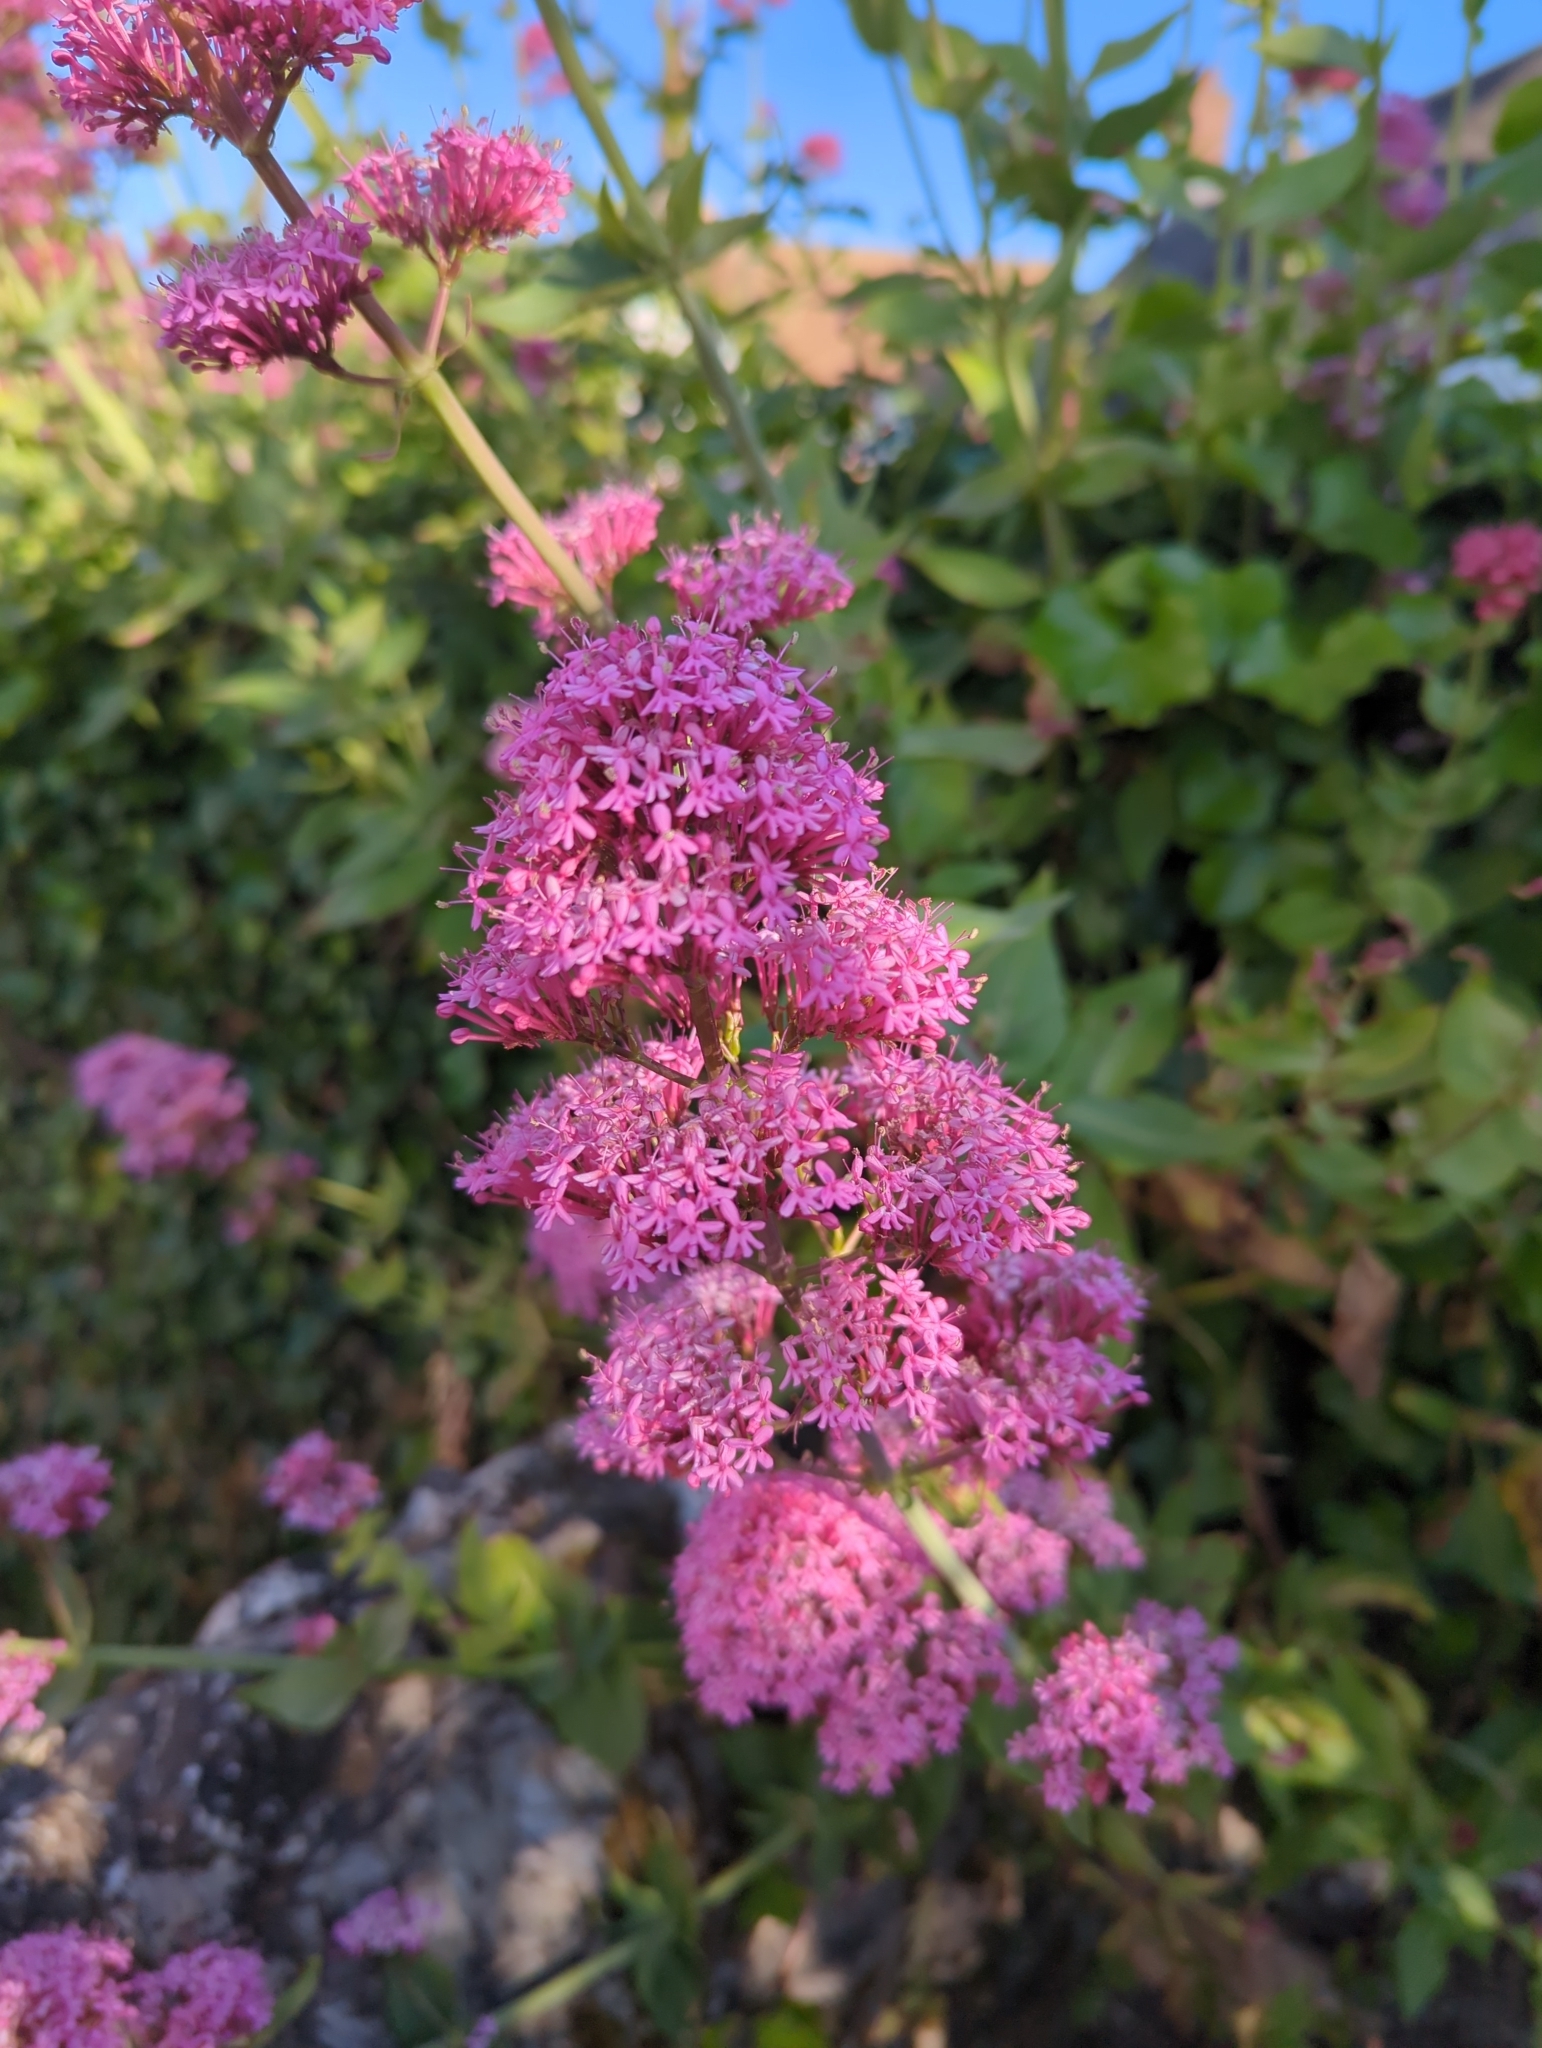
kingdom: Plantae
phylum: Tracheophyta
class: Magnoliopsida
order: Dipsacales
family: Caprifoliaceae
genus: Centranthus
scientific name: Centranthus ruber
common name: Red valerian
